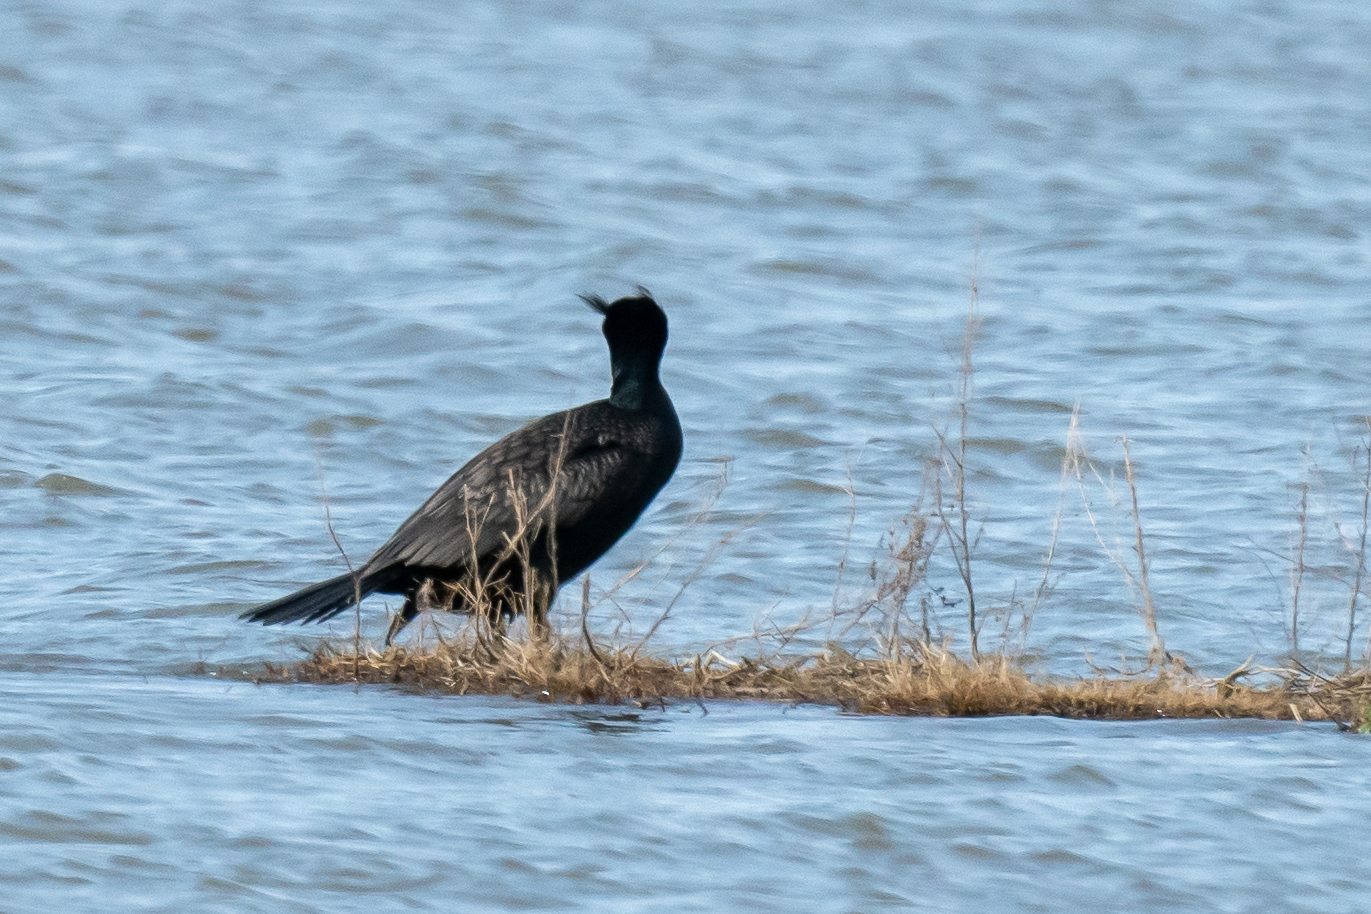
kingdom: Animalia
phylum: Chordata
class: Aves
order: Suliformes
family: Phalacrocoracidae
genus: Phalacrocorax
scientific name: Phalacrocorax auritus
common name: Double-crested cormorant
